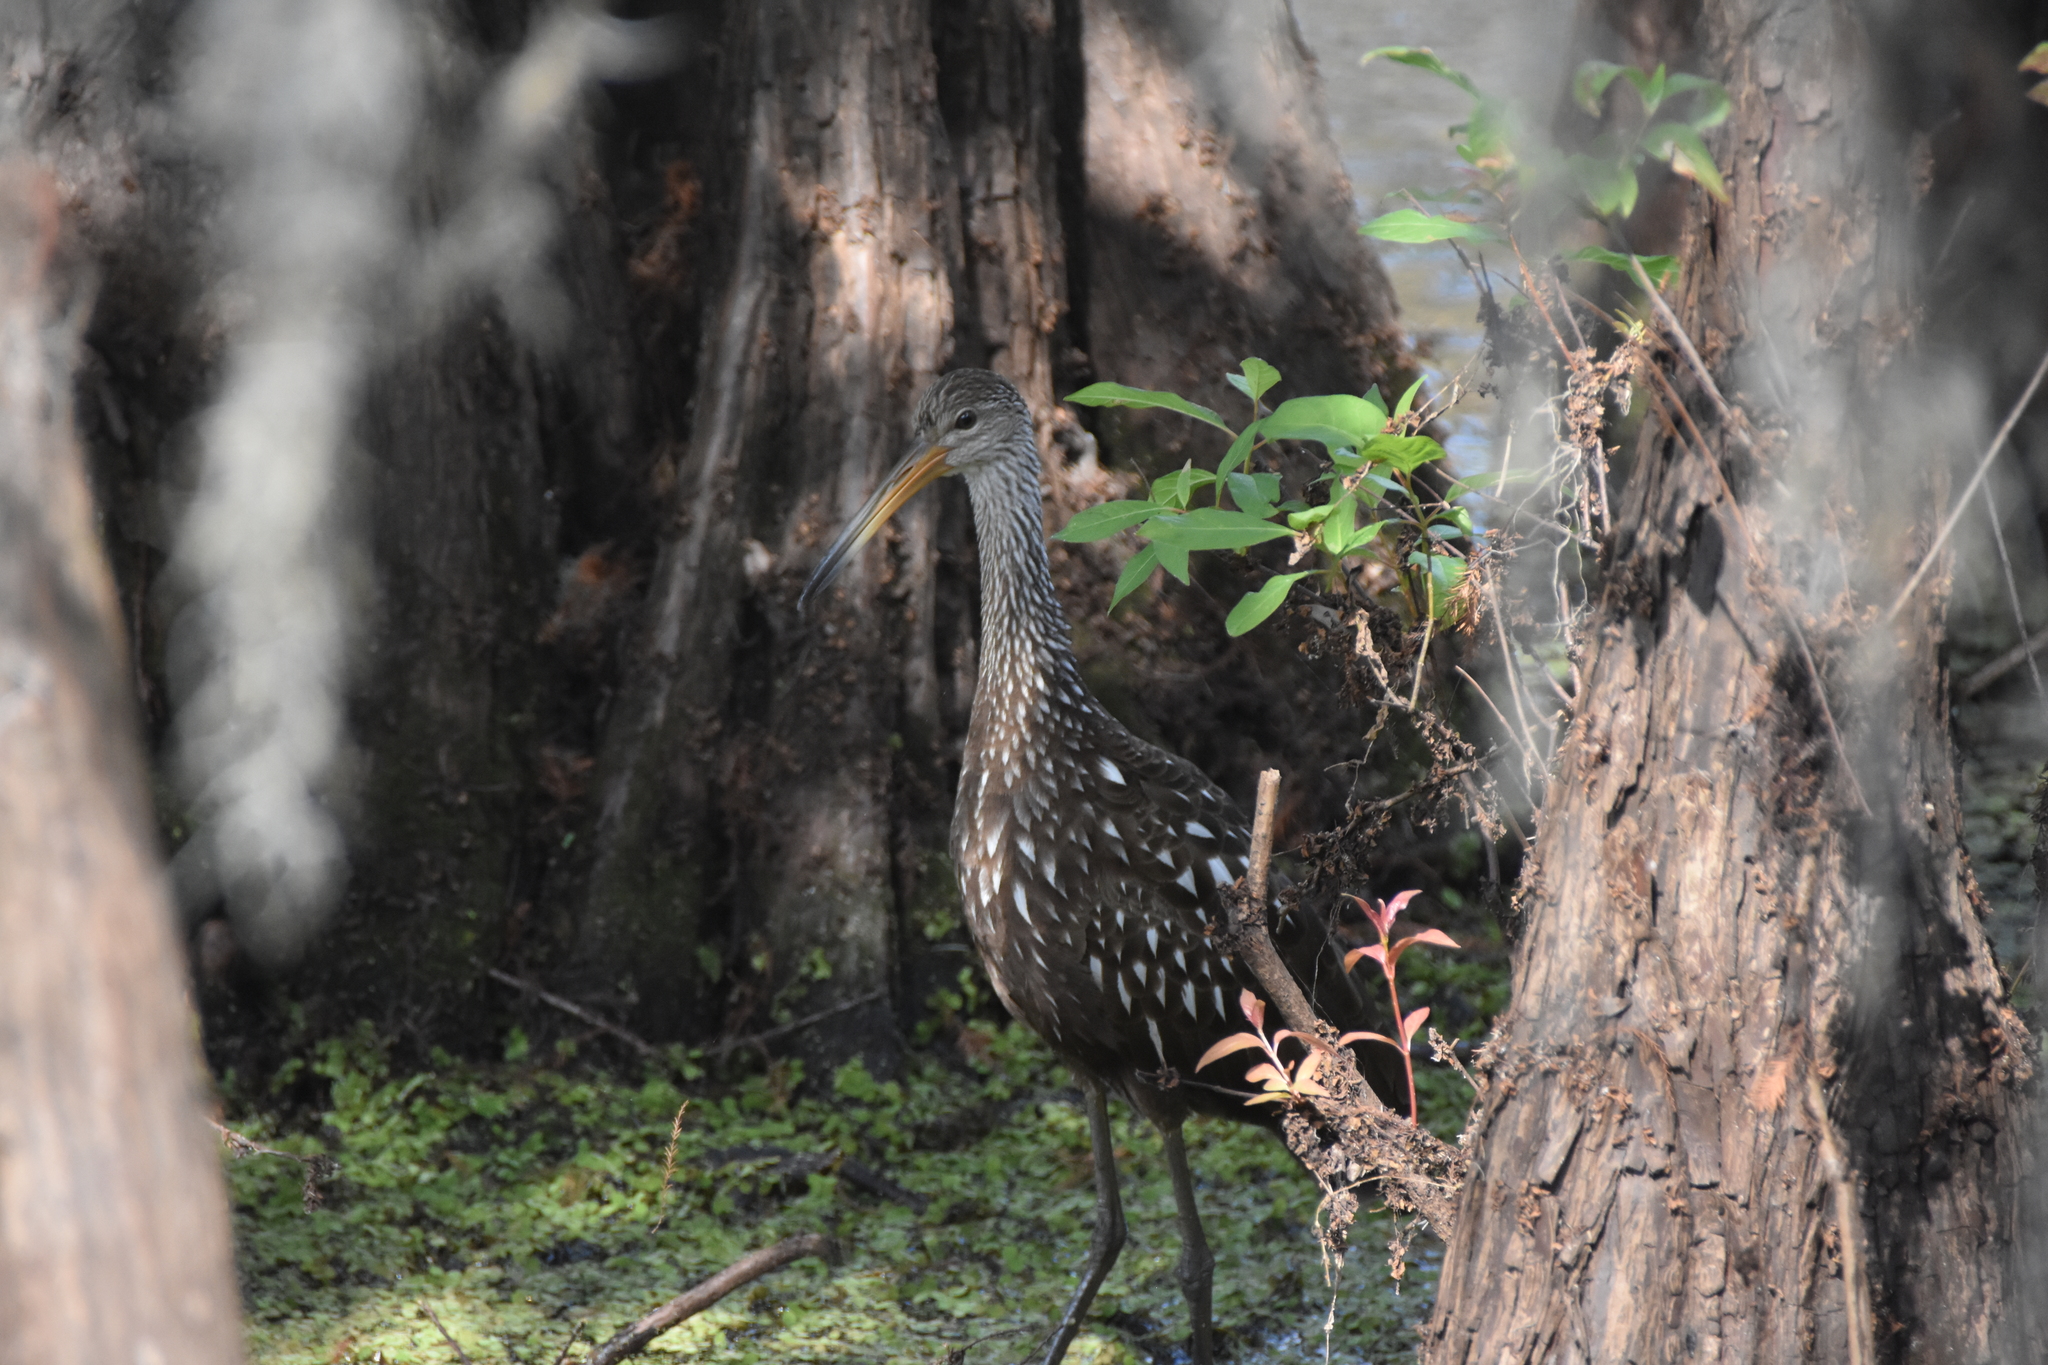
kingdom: Animalia
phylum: Chordata
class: Aves
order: Gruiformes
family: Aramidae
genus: Aramus
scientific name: Aramus guarauna
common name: Limpkin
